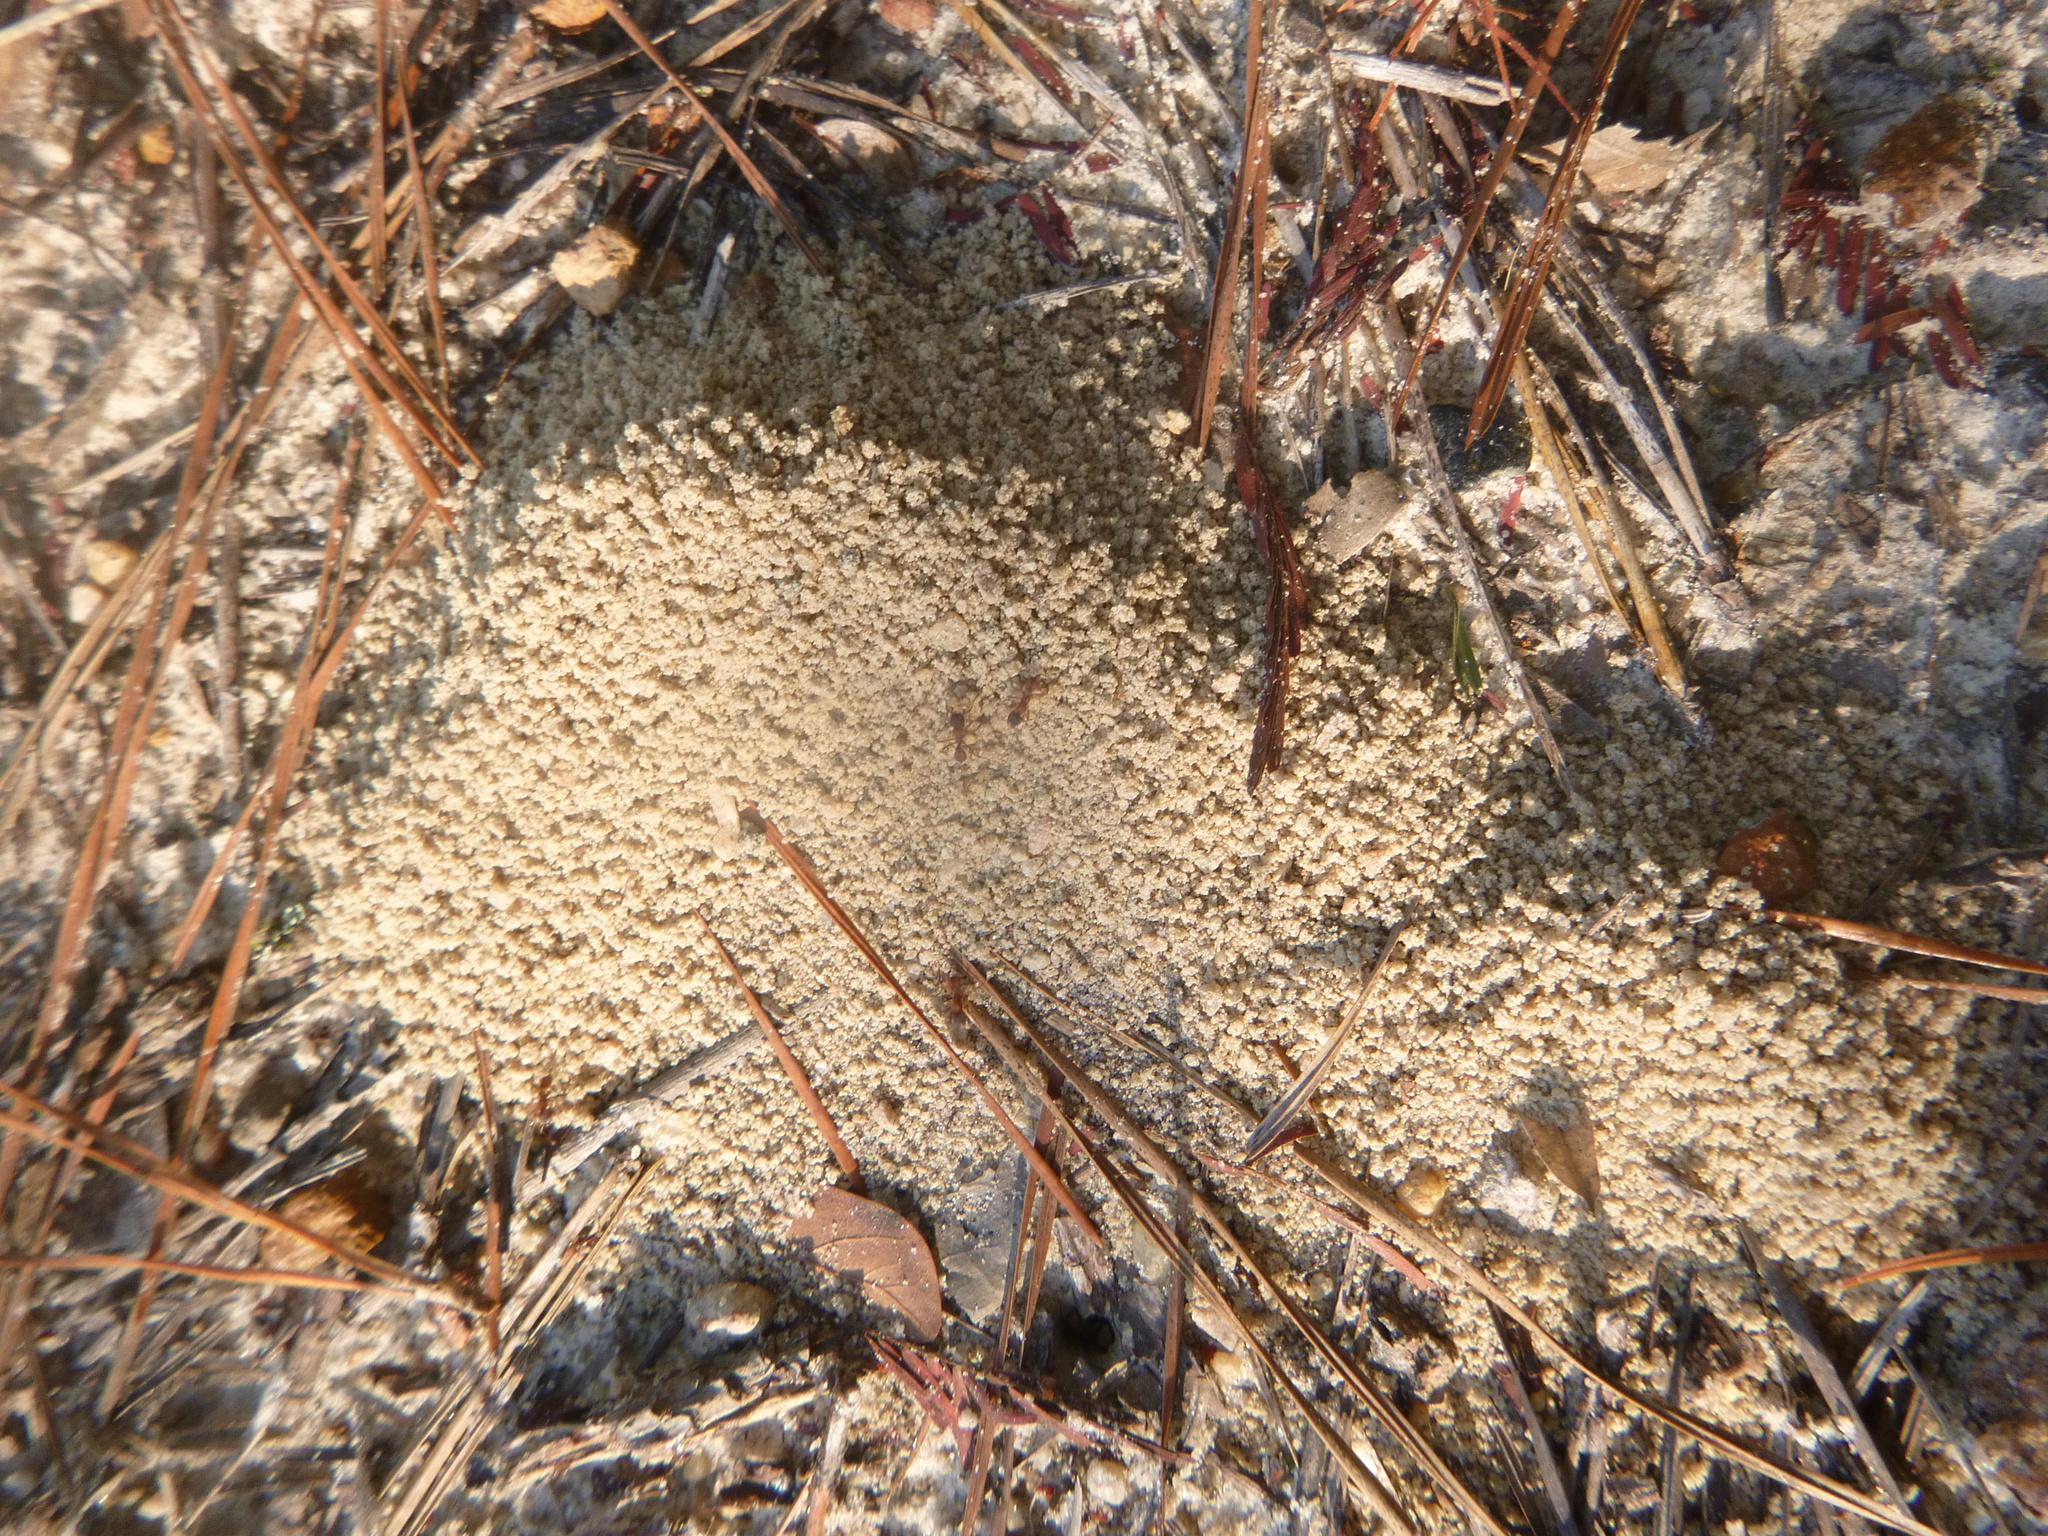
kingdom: Animalia
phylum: Arthropoda
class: Insecta
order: Hymenoptera
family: Formicidae
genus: Trachymyrmex
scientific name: Trachymyrmex septentrionalis
